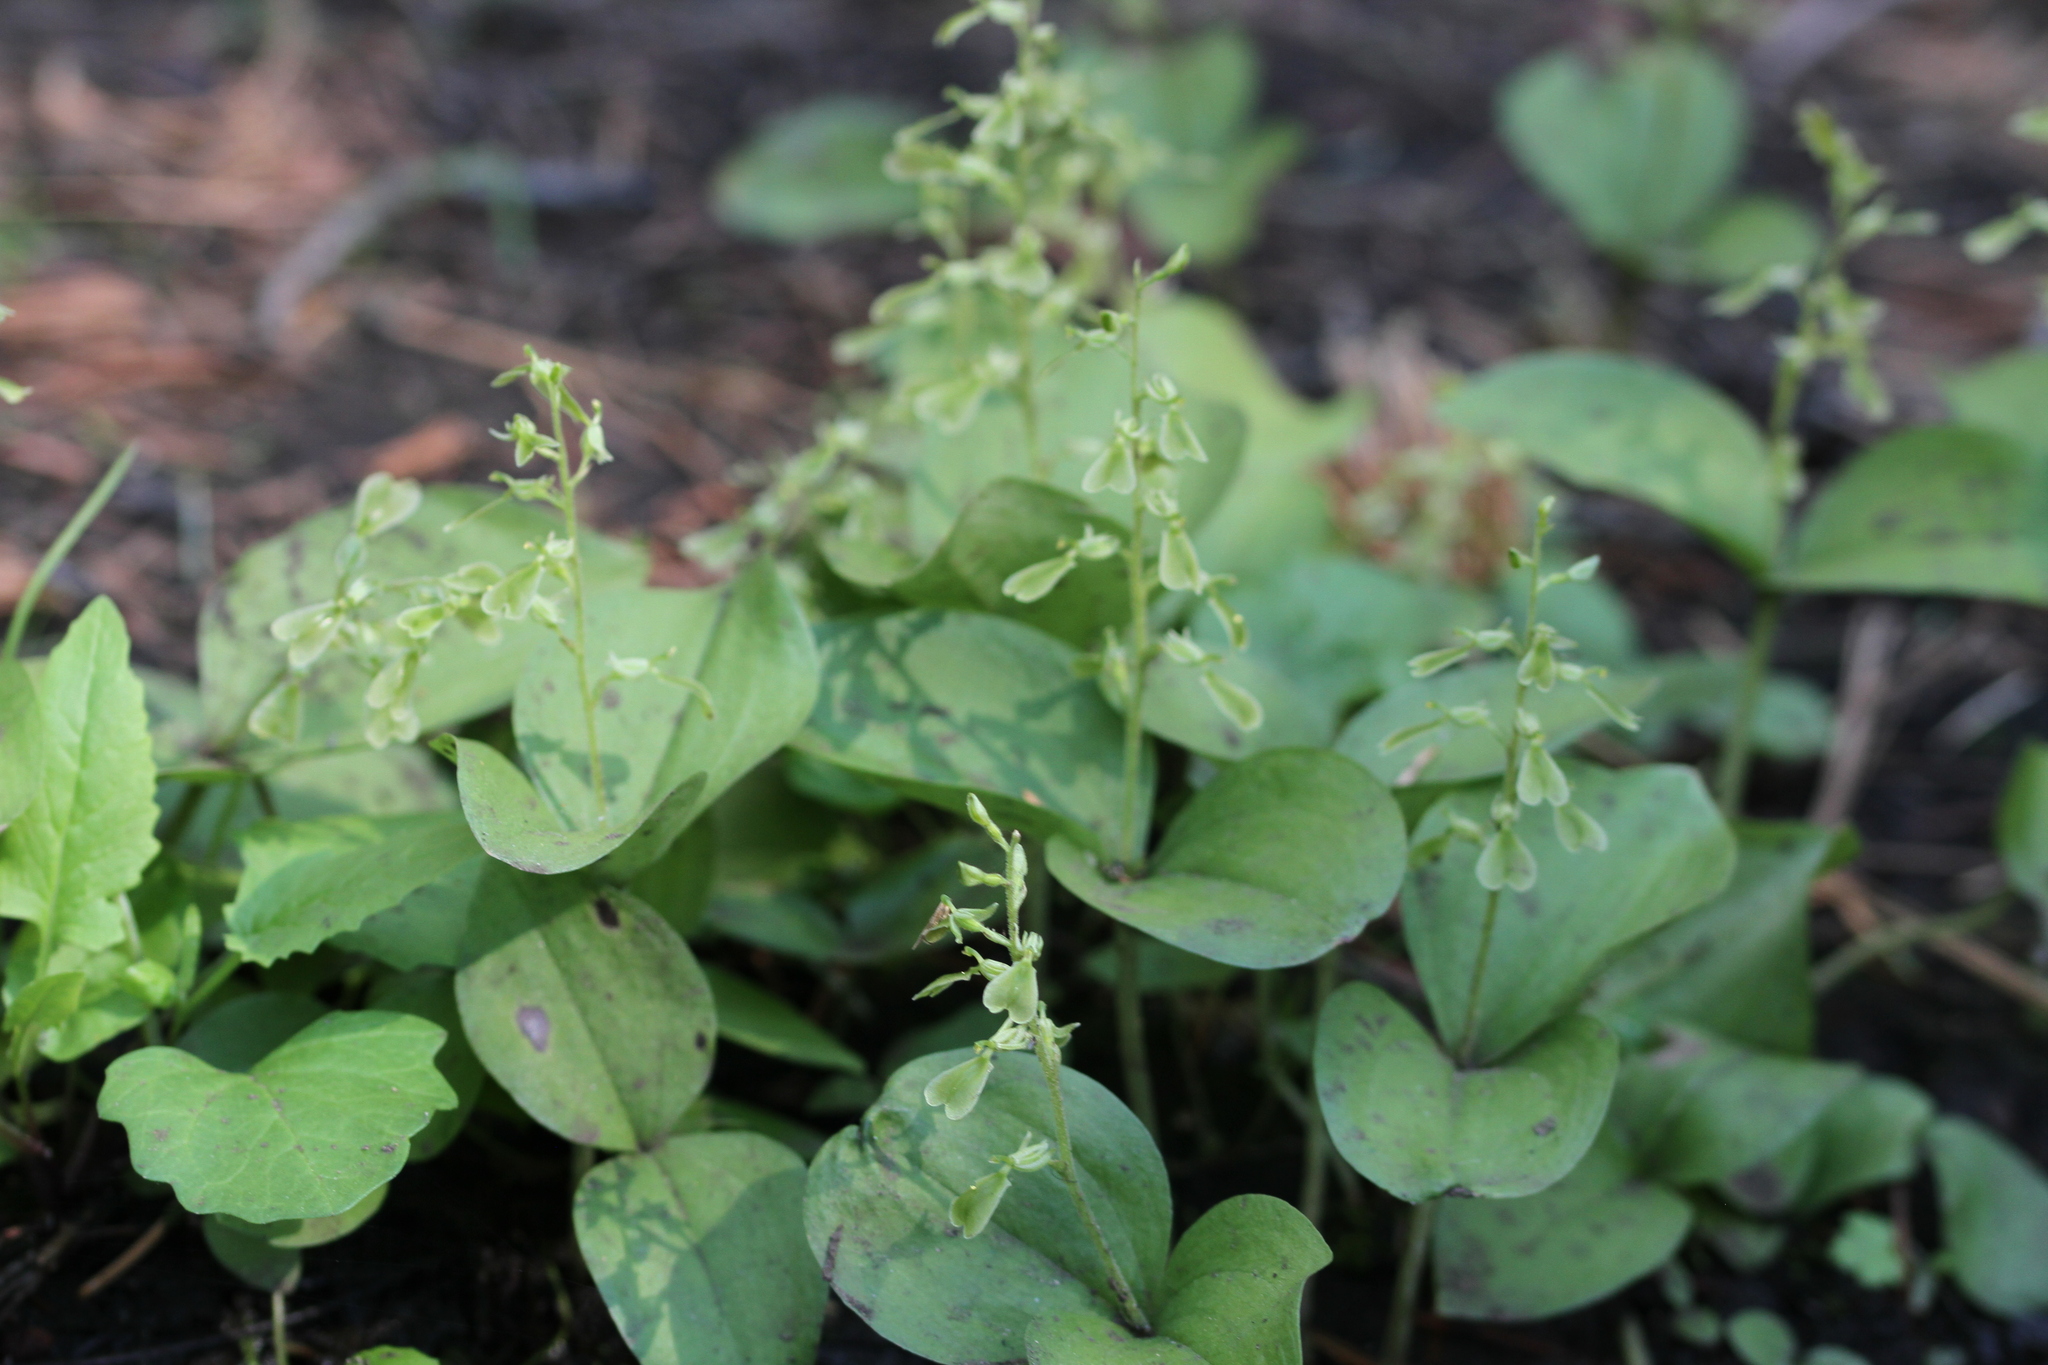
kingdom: Plantae
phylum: Tracheophyta
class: Liliopsida
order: Asparagales
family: Orchidaceae
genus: Neottia
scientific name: Neottia convallarioides
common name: Broadleaf twayblade
